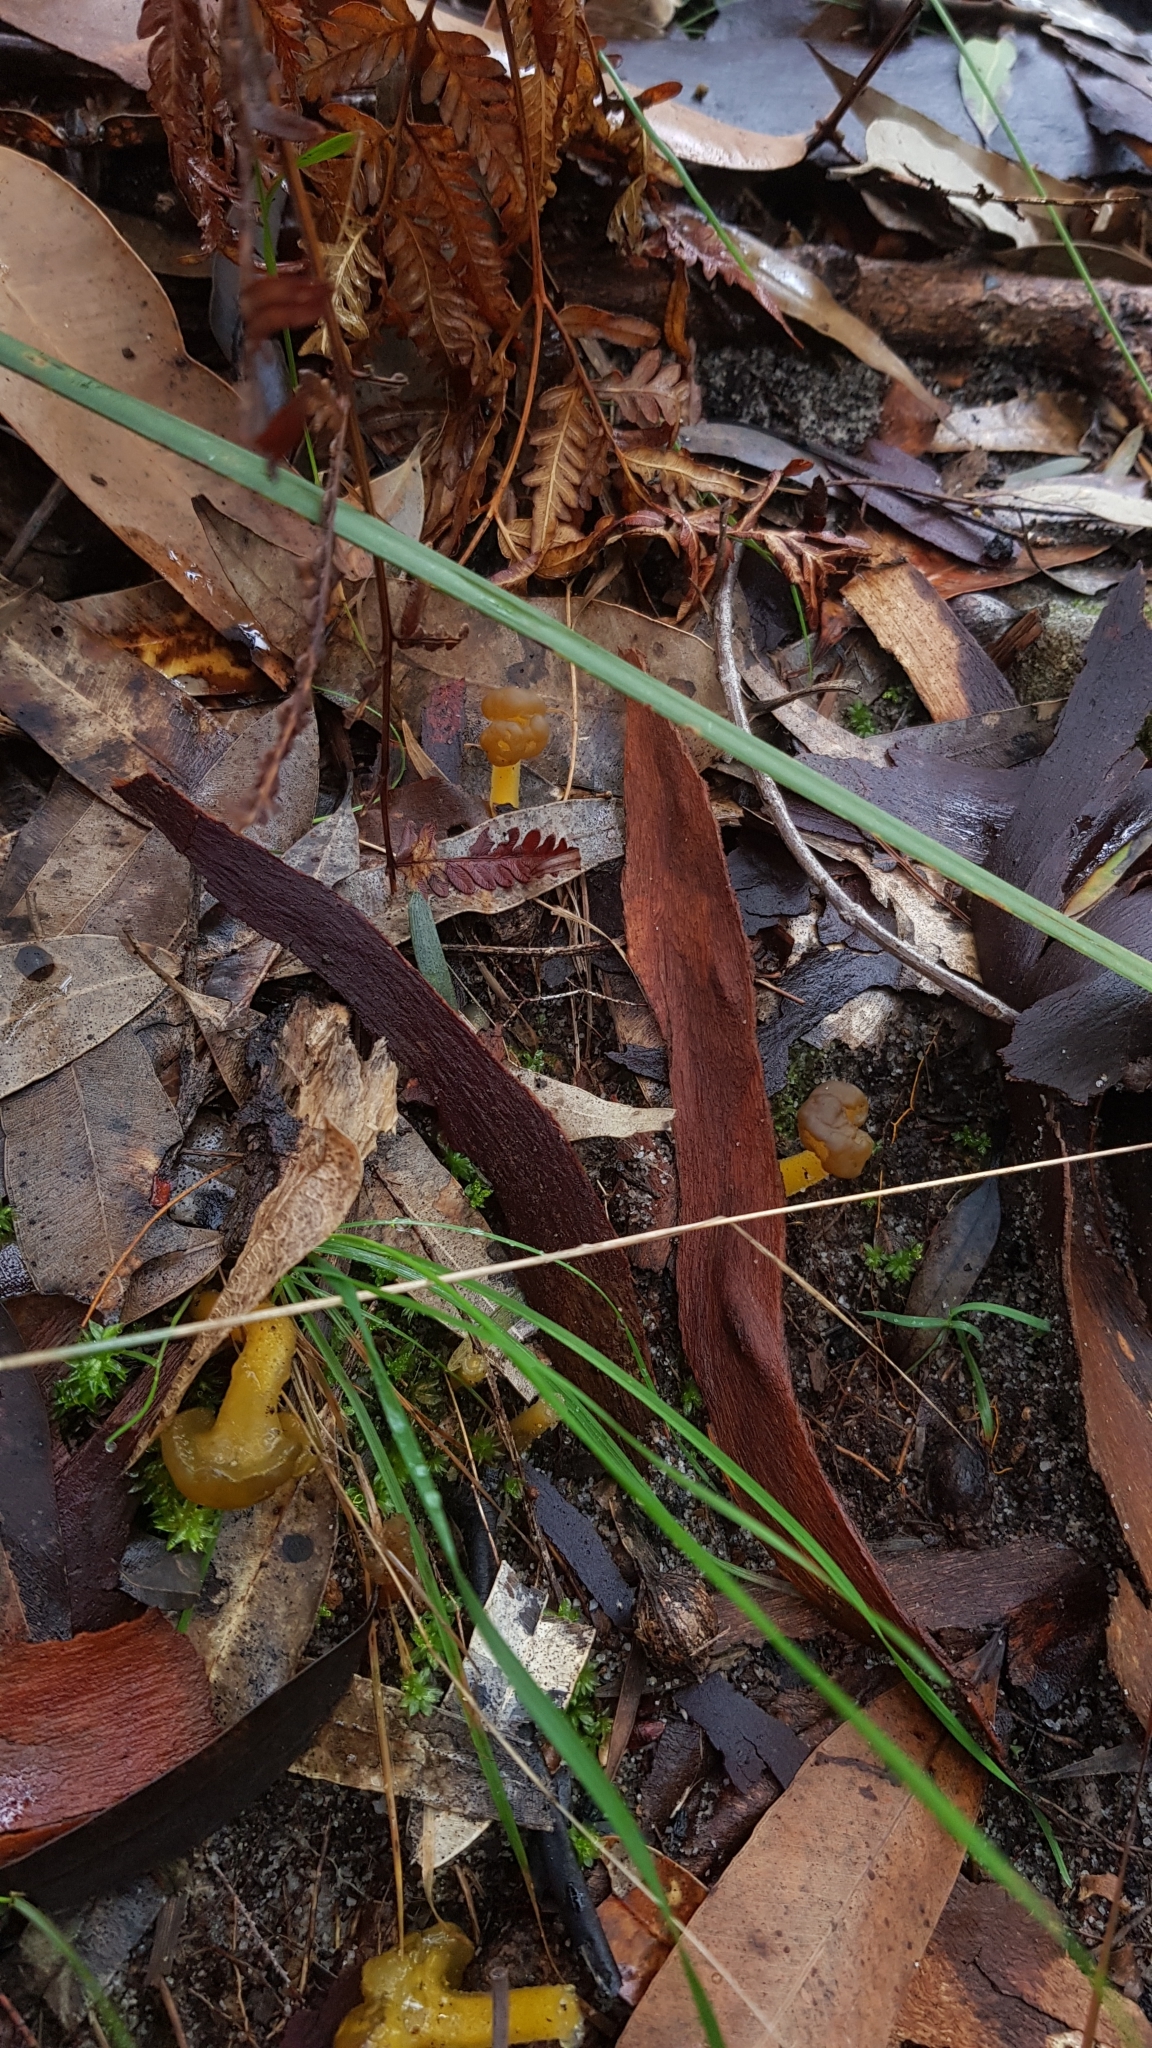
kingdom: Fungi
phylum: Ascomycota
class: Leotiomycetes
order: Leotiales
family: Leotiaceae
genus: Leotia
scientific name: Leotia lubrica
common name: Jellybaby
